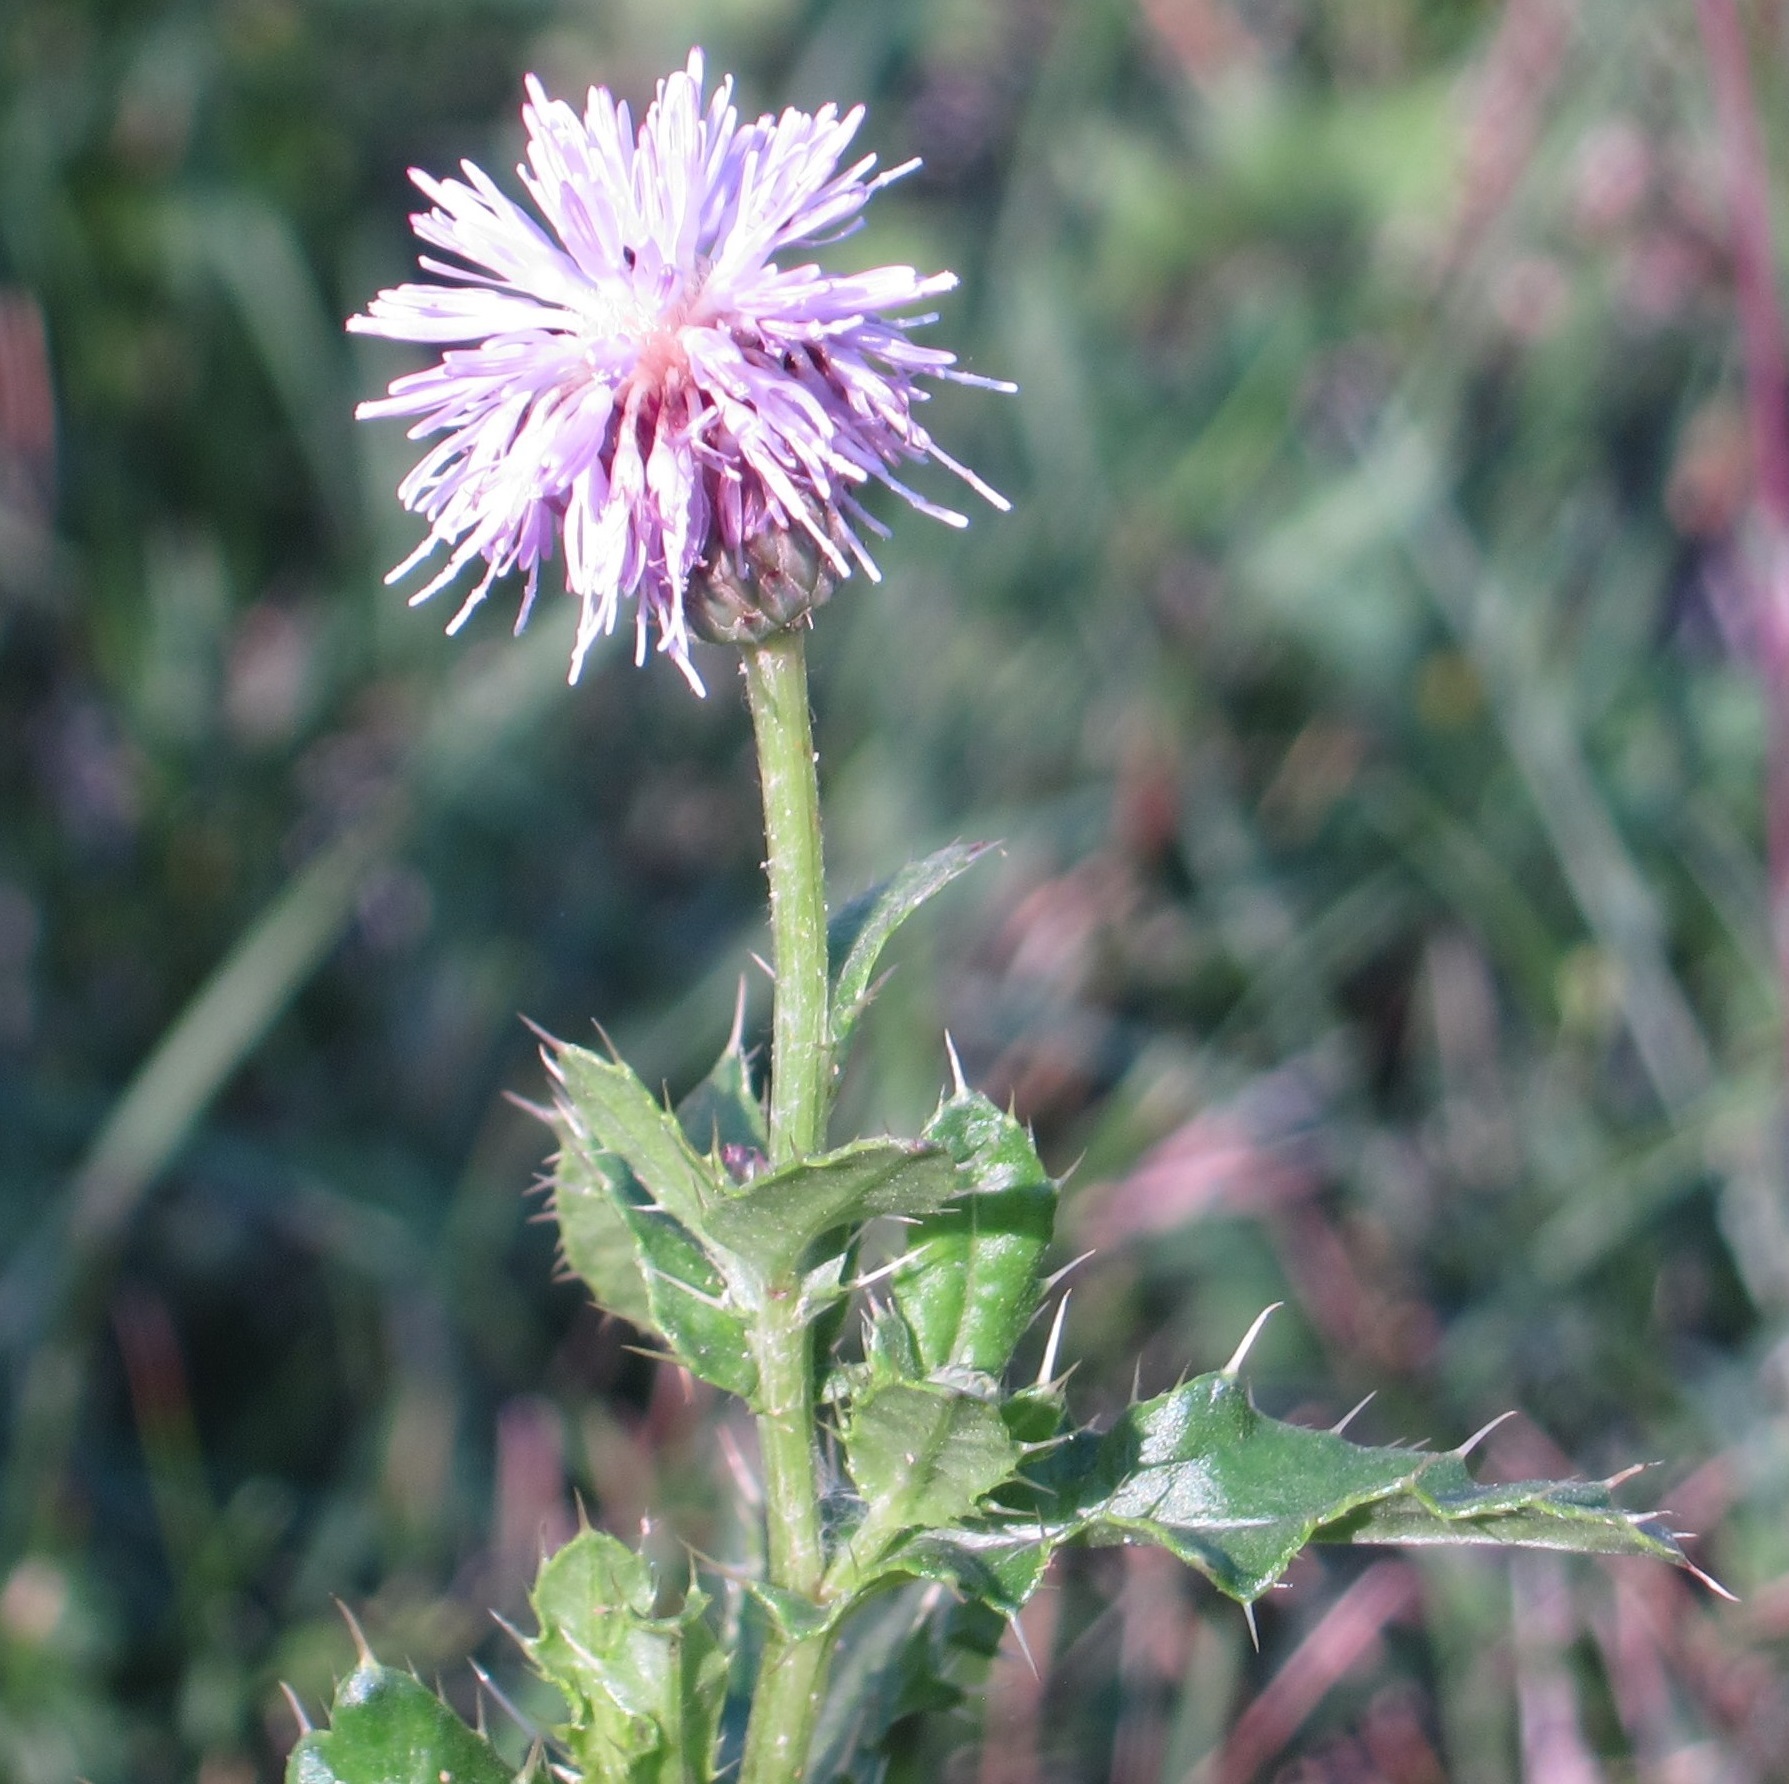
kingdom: Plantae
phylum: Tracheophyta
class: Magnoliopsida
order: Asterales
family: Asteraceae
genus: Cirsium
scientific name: Cirsium arvense
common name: Creeping thistle
